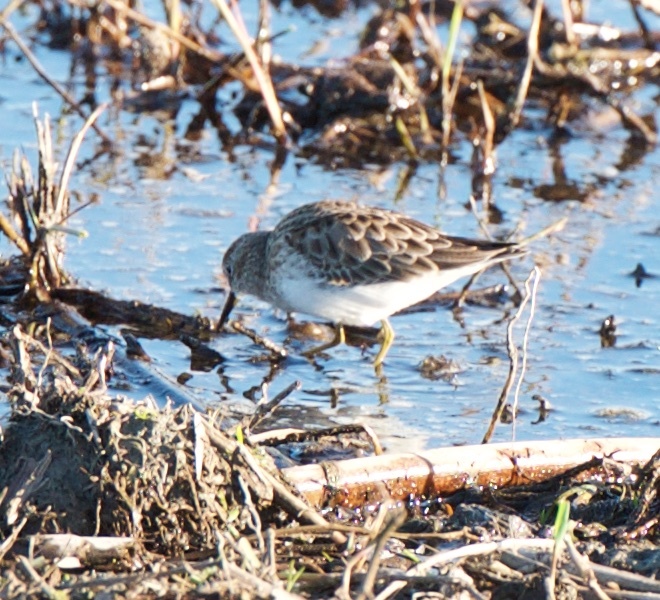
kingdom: Animalia
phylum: Chordata
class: Aves
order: Charadriiformes
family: Scolopacidae
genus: Calidris
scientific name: Calidris minutilla
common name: Least sandpiper
